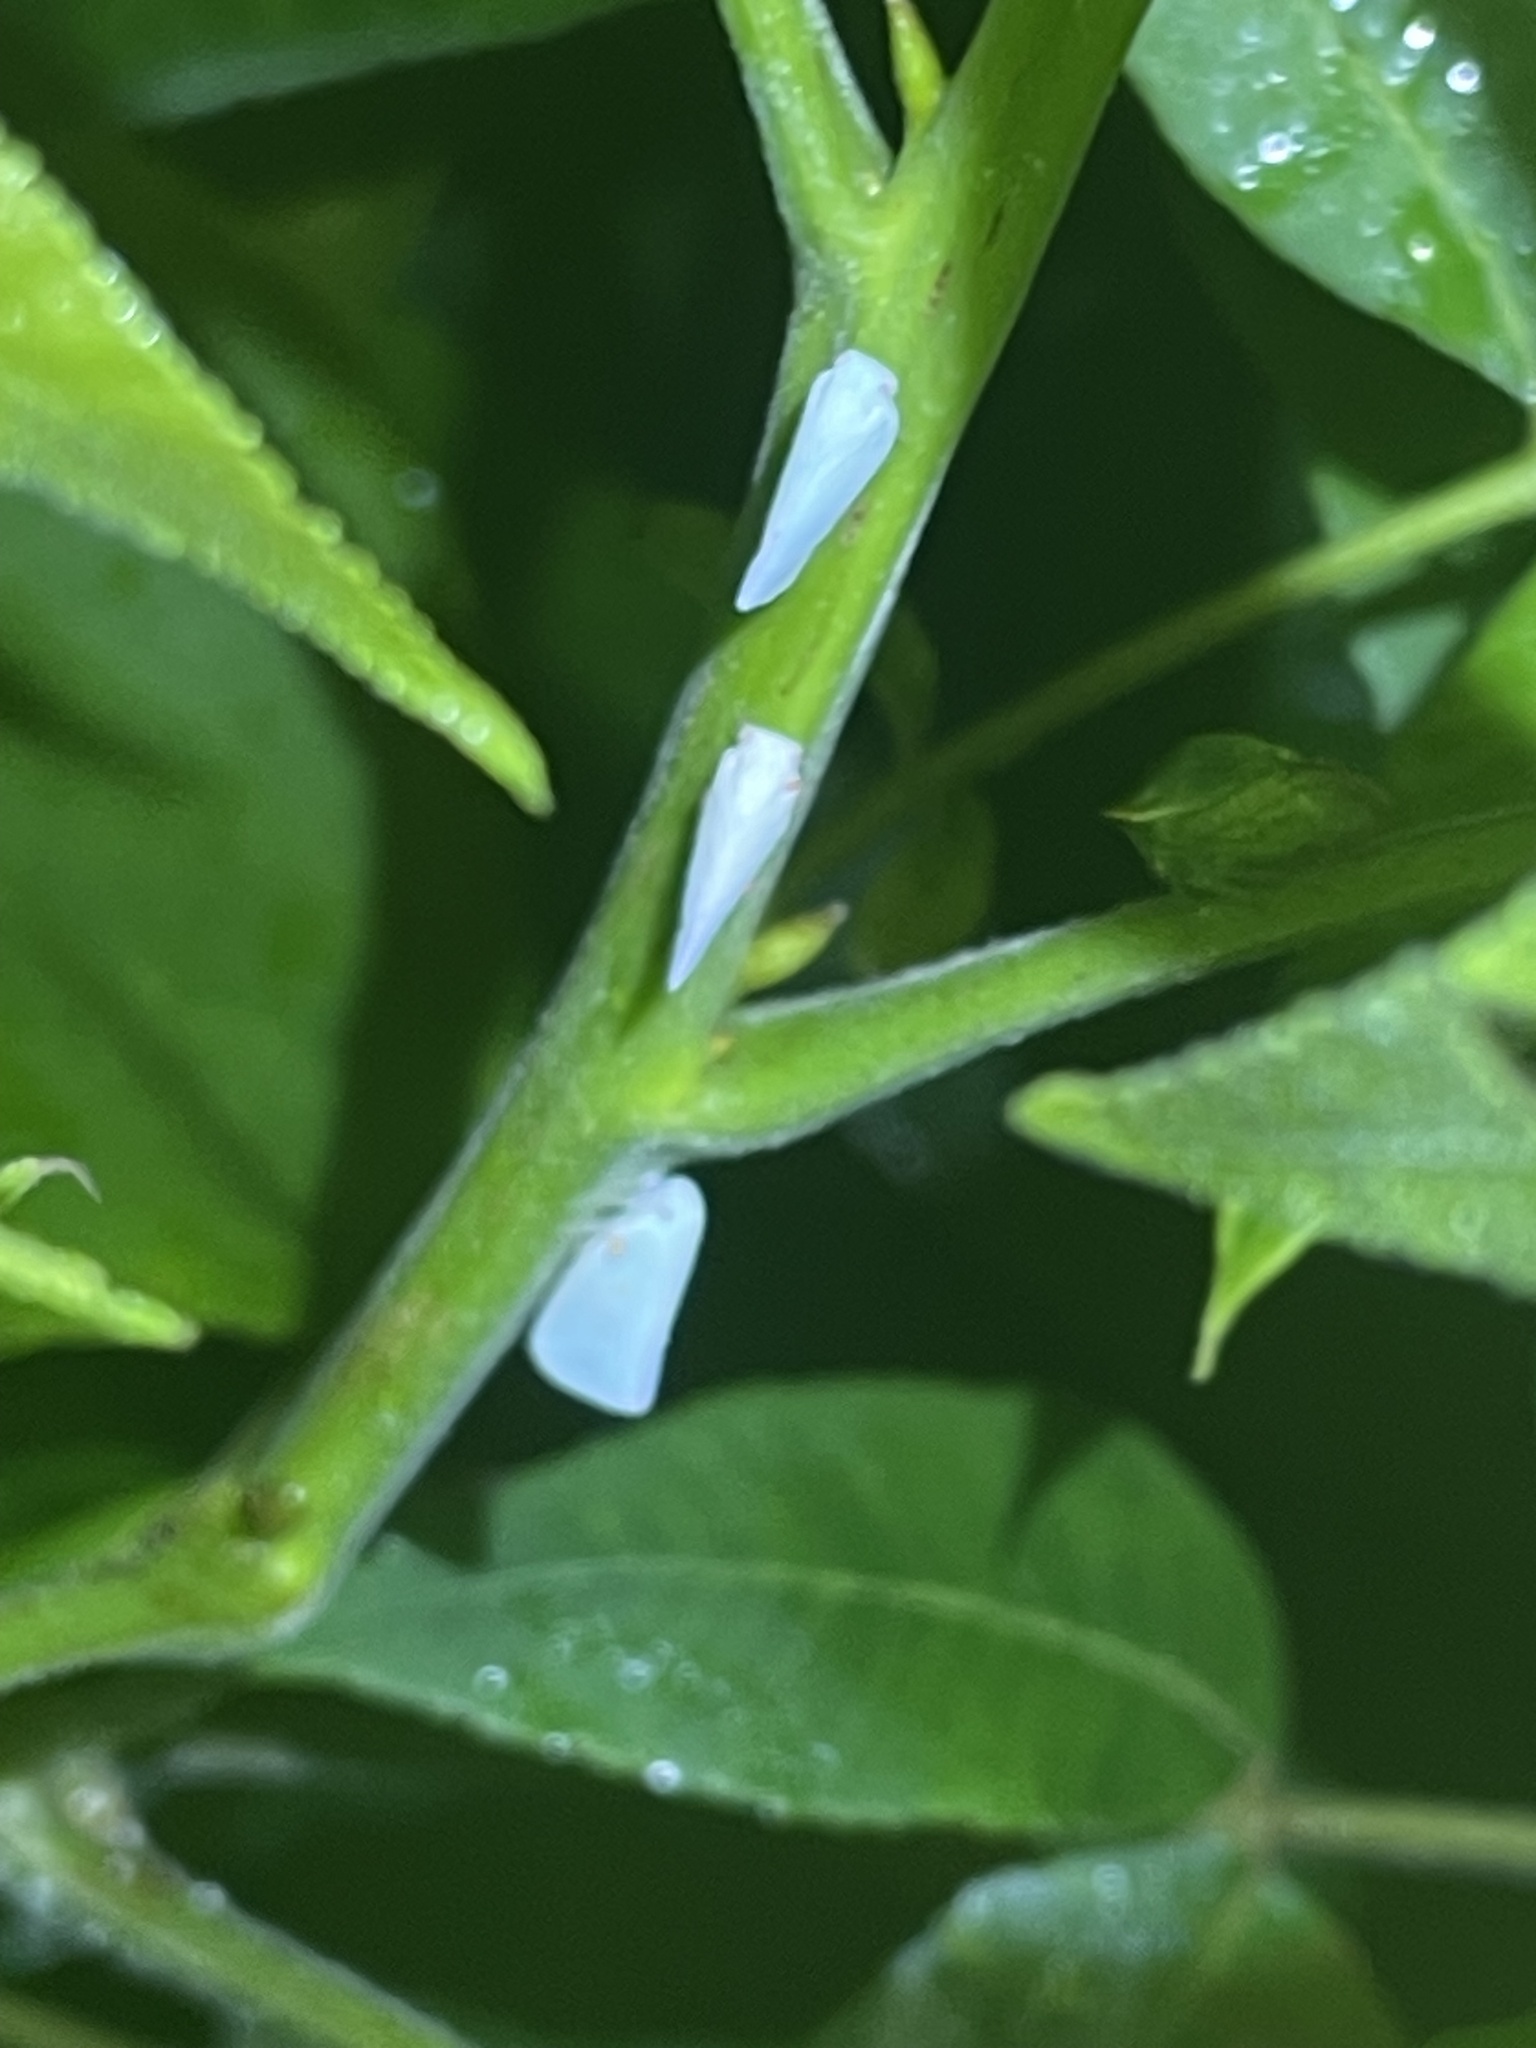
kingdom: Animalia
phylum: Arthropoda
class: Insecta
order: Hemiptera
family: Flatidae
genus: Flatormenis
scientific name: Flatormenis proxima
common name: Northern flatid planthopper
